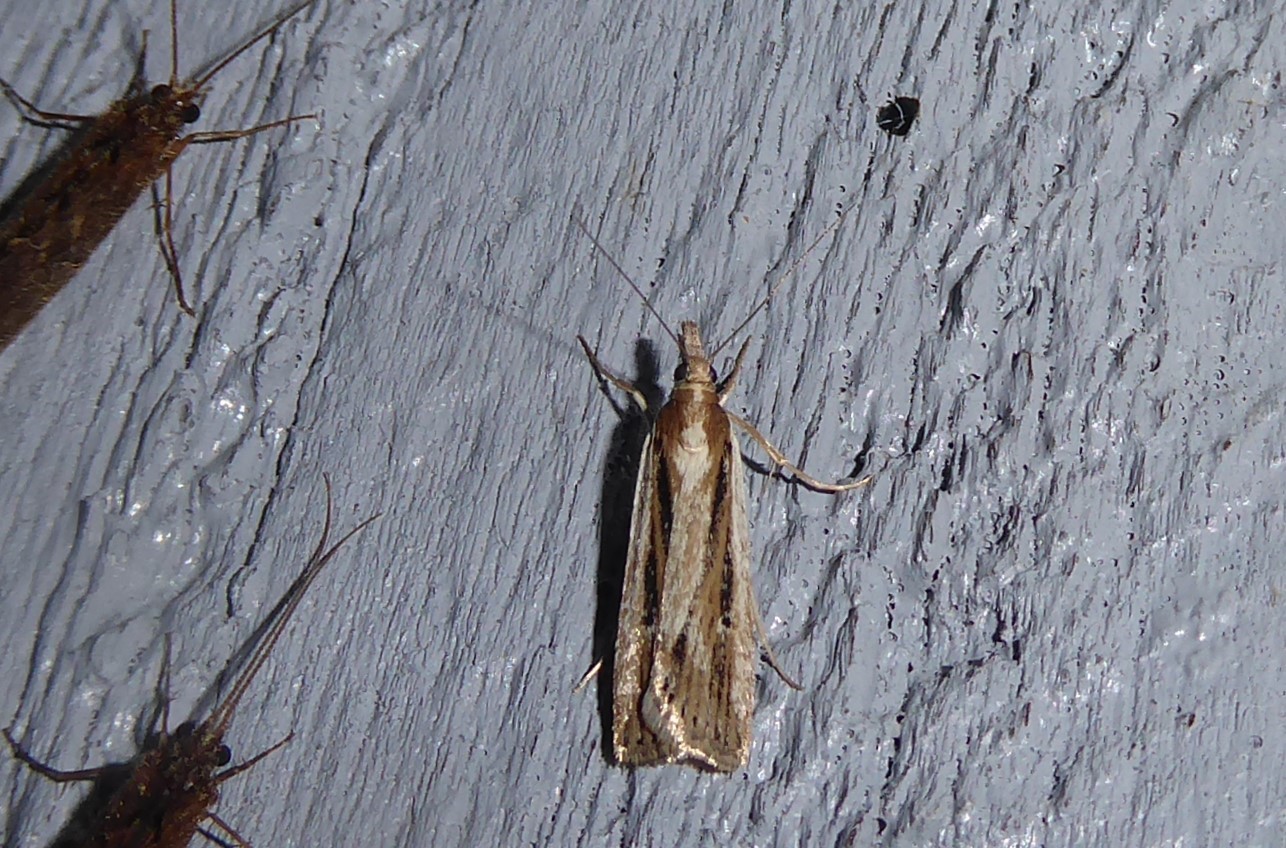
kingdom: Animalia
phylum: Arthropoda
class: Insecta
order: Lepidoptera
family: Crambidae
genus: Eudonia
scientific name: Eudonia sabulosella
